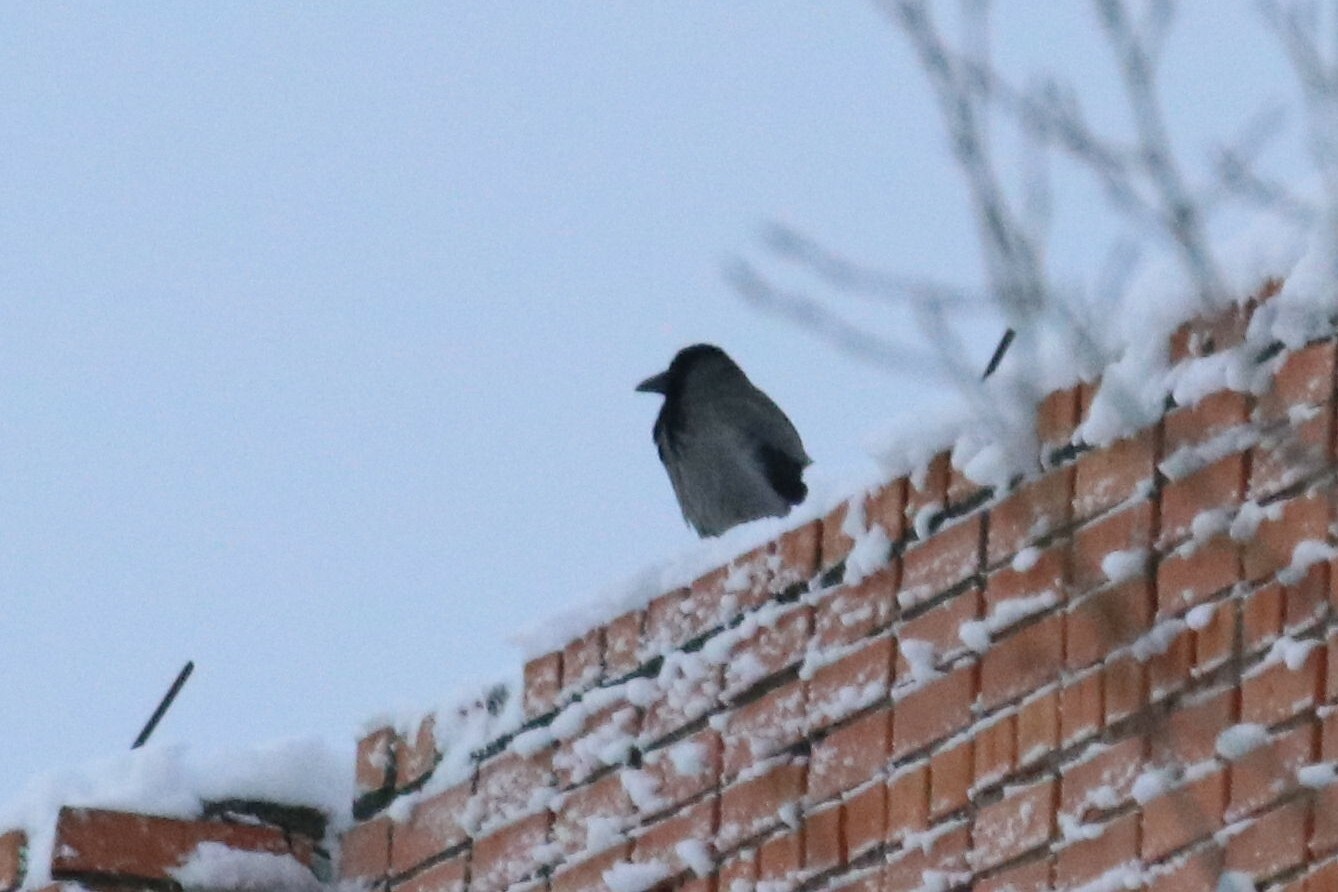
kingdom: Animalia
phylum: Chordata
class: Aves
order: Passeriformes
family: Corvidae
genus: Corvus
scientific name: Corvus cornix
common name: Hooded crow
